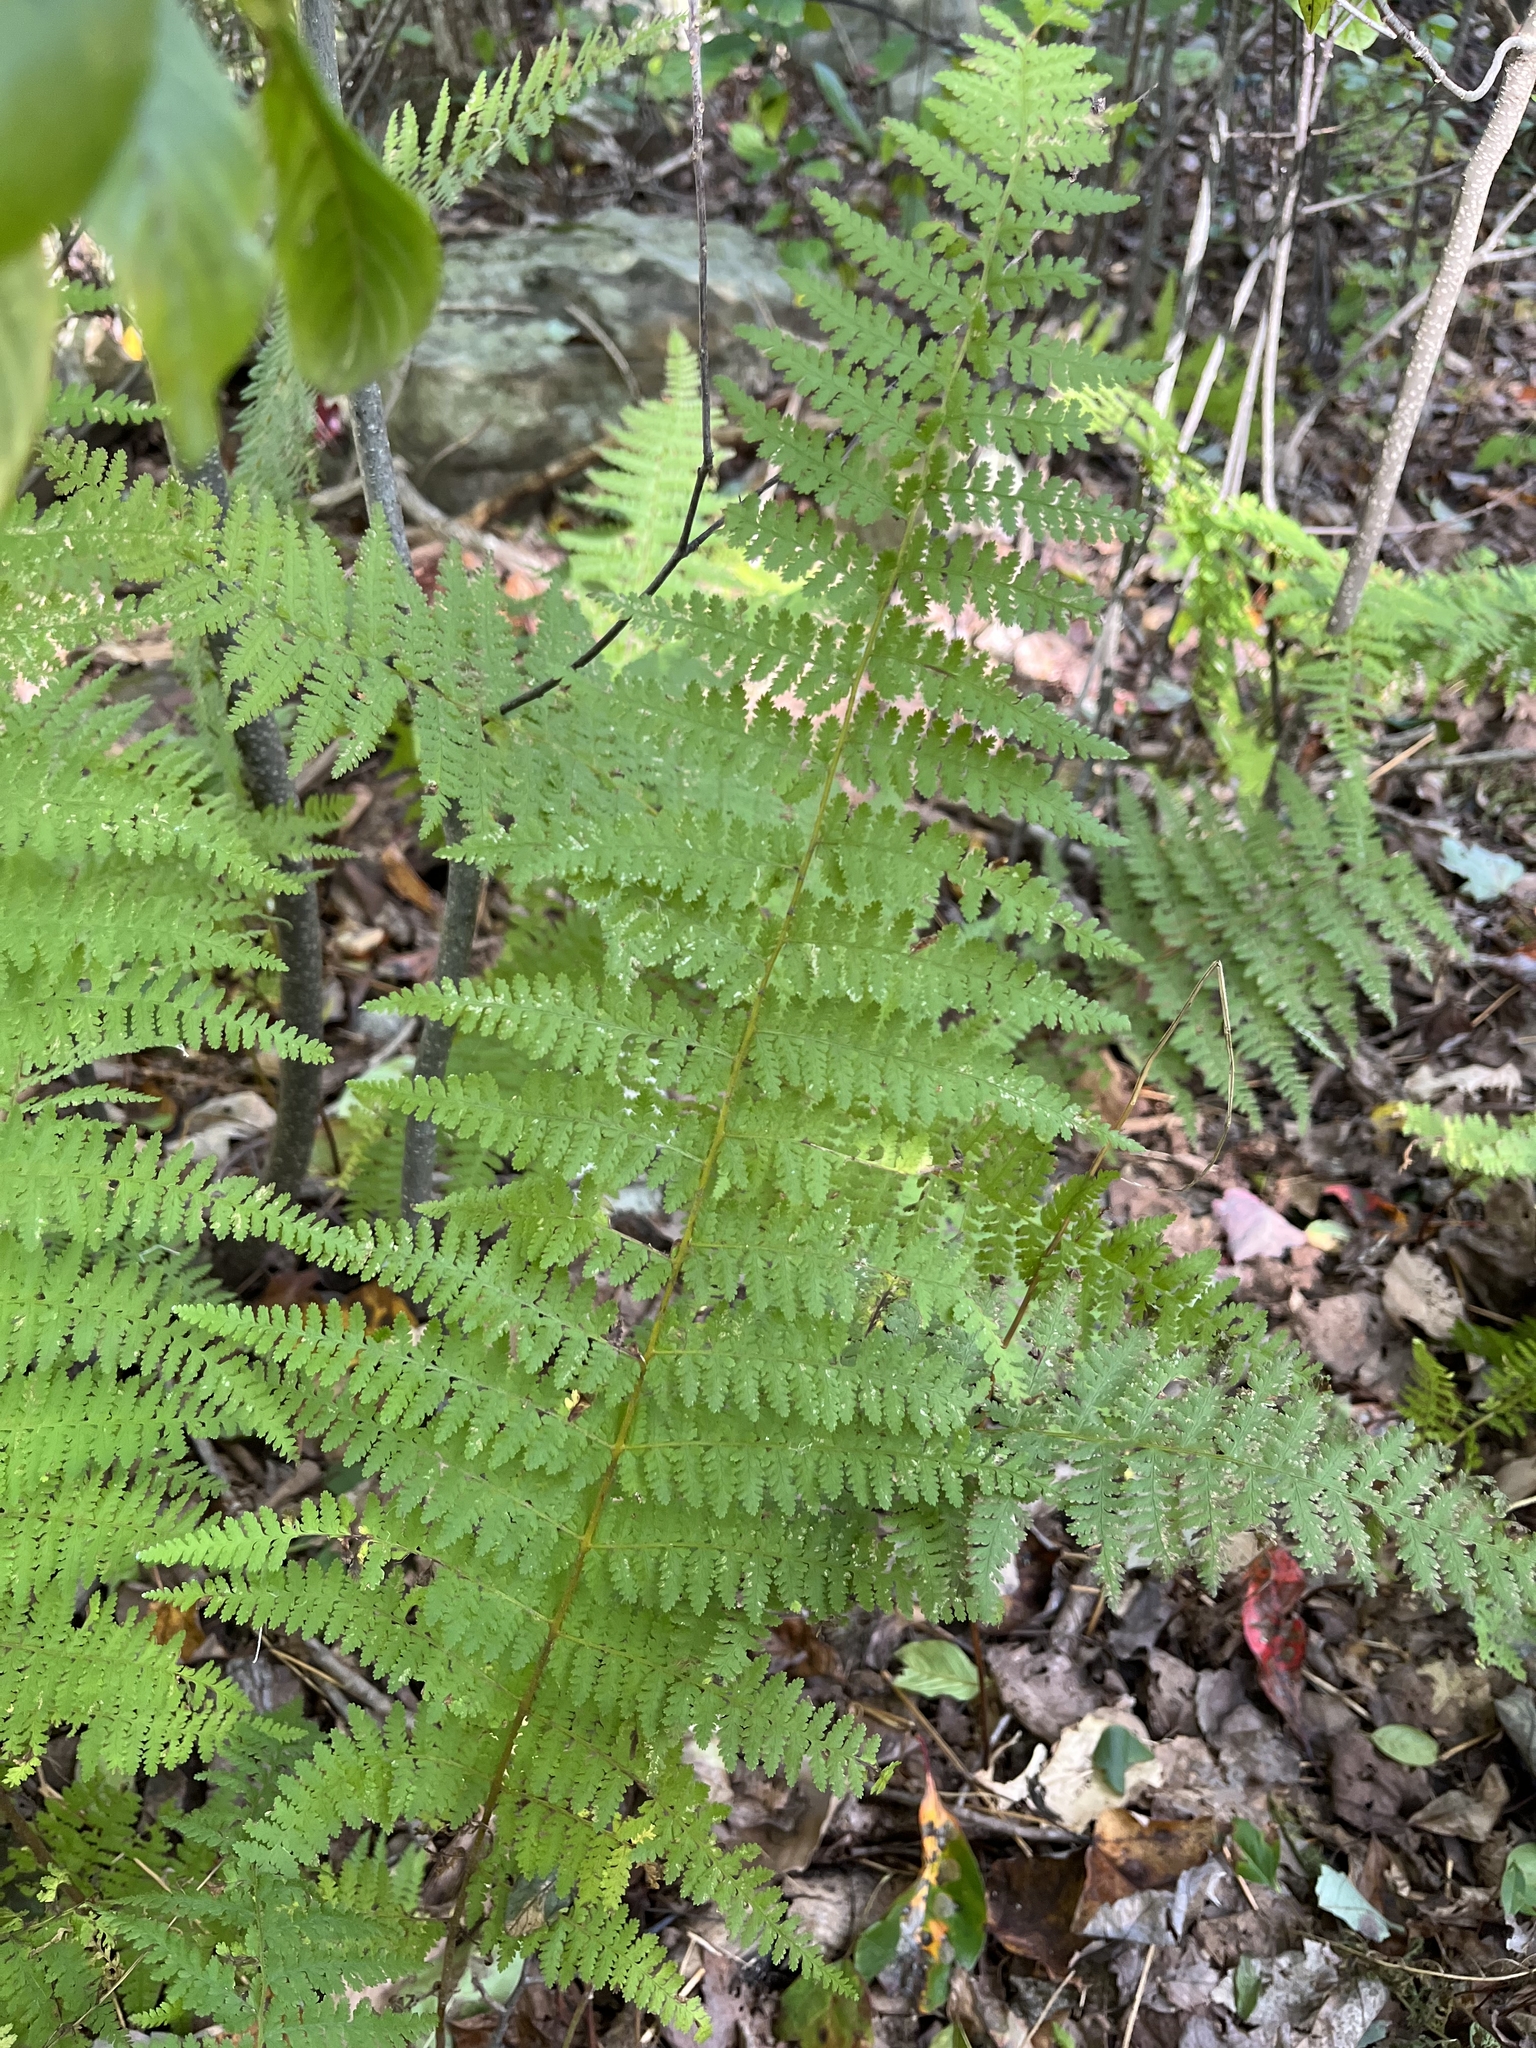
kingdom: Plantae
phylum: Tracheophyta
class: Polypodiopsida
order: Polypodiales
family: Dennstaedtiaceae
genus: Sitobolium
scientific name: Sitobolium punctilobum
